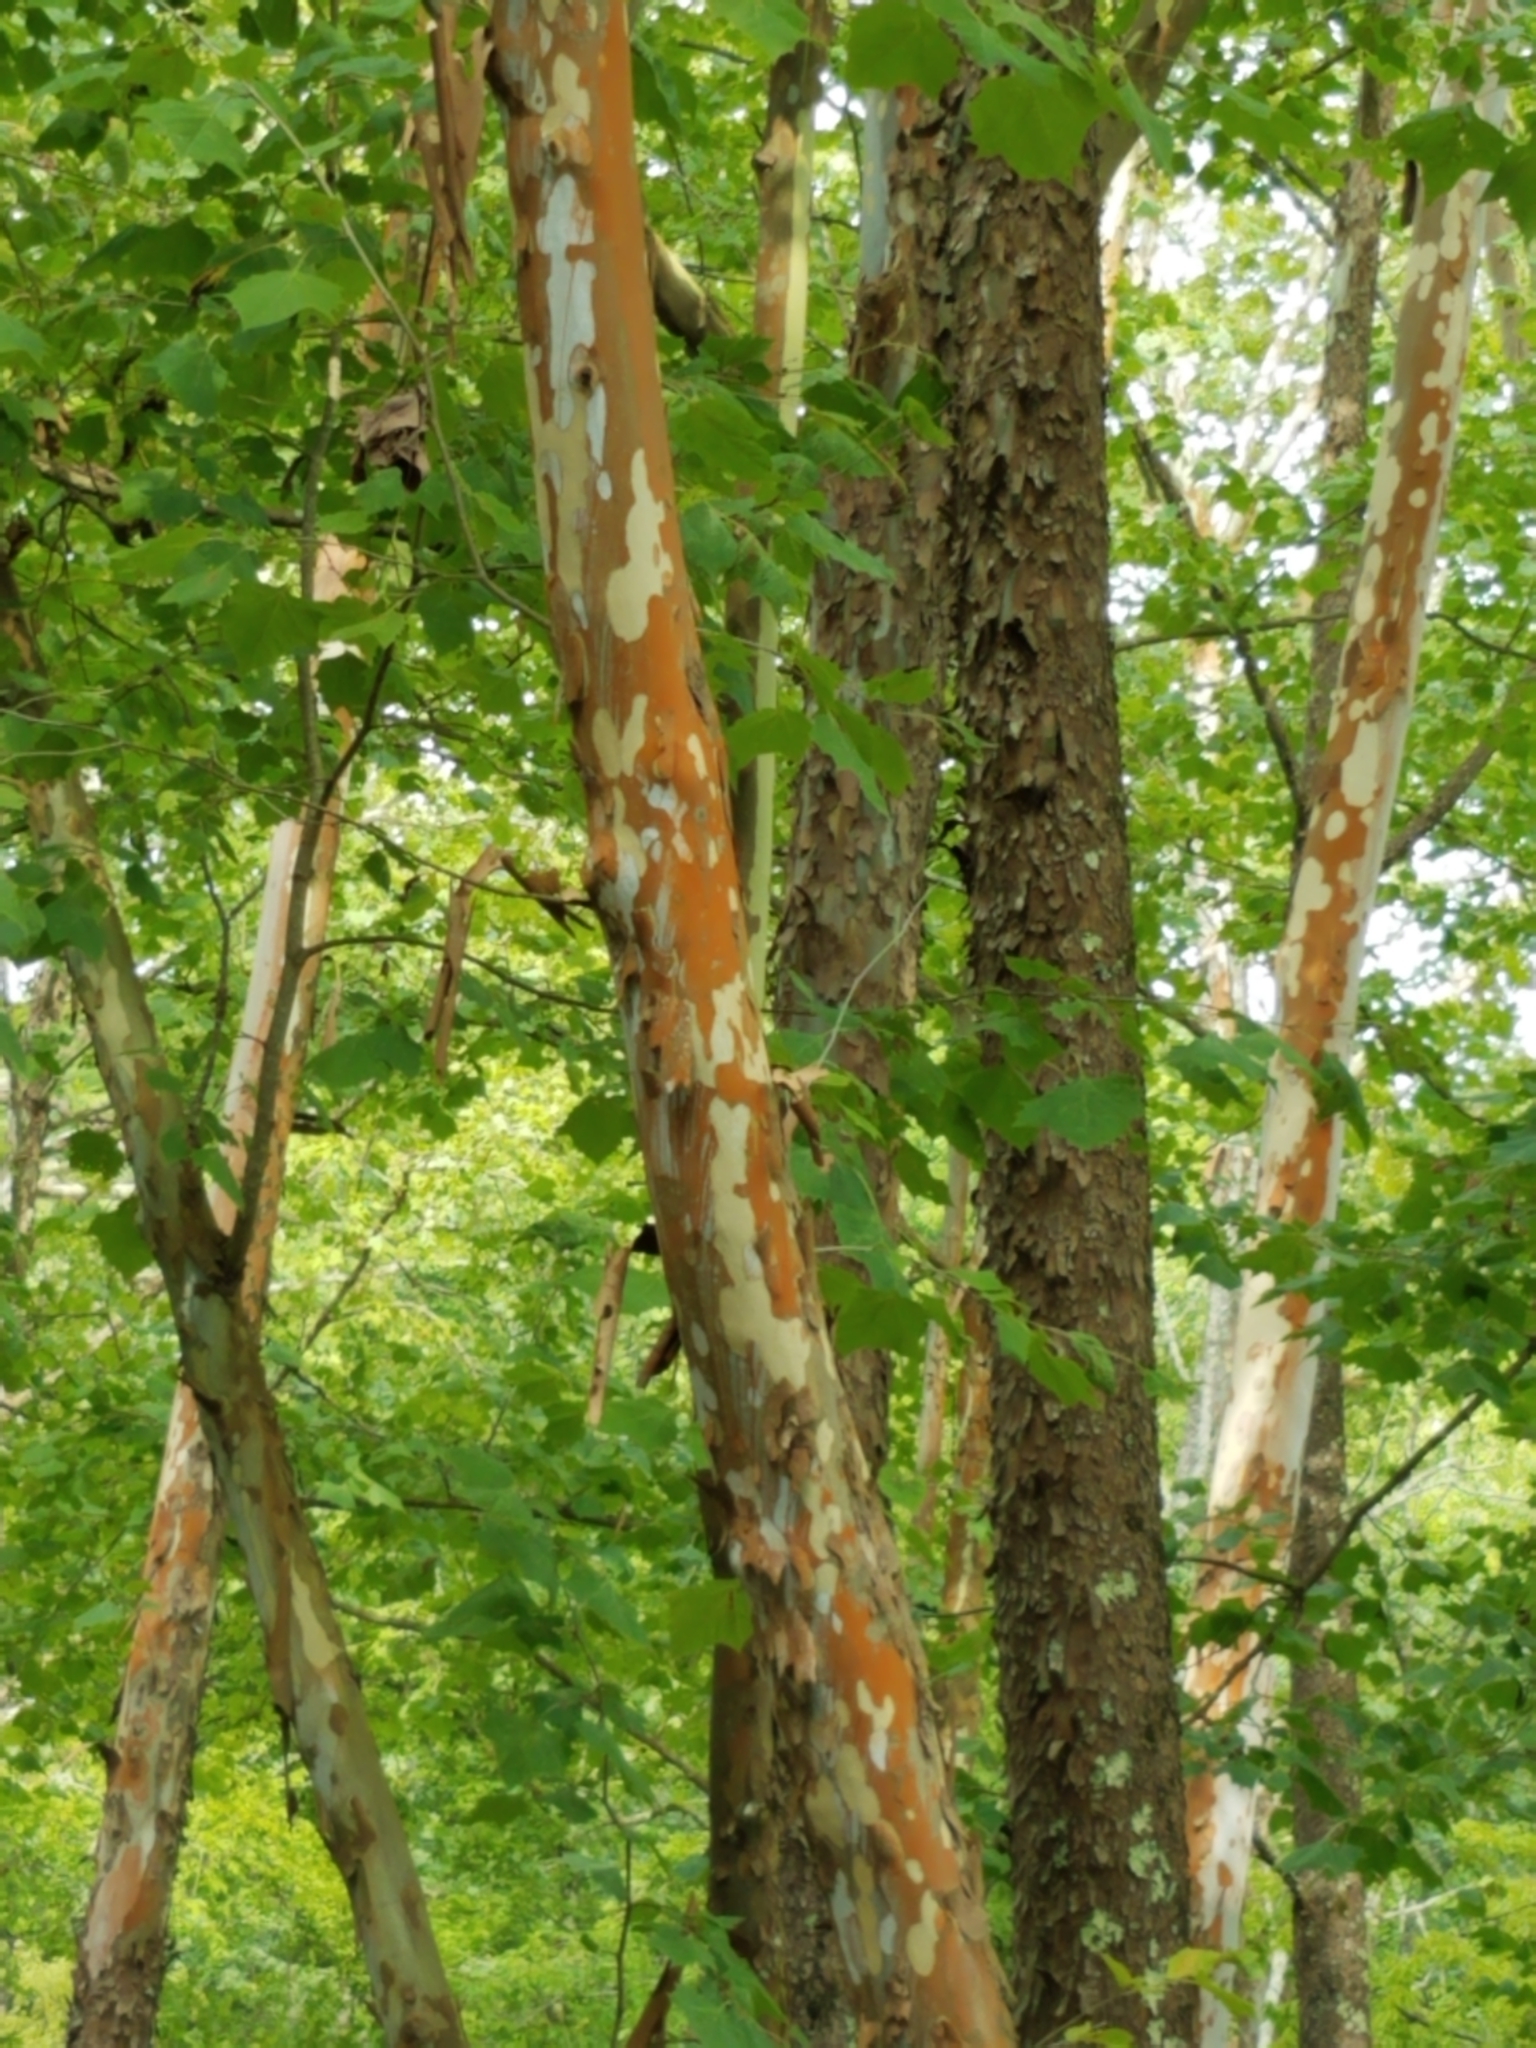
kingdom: Plantae
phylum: Tracheophyta
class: Magnoliopsida
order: Proteales
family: Platanaceae
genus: Platanus
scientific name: Platanus occidentalis
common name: American sycamore
